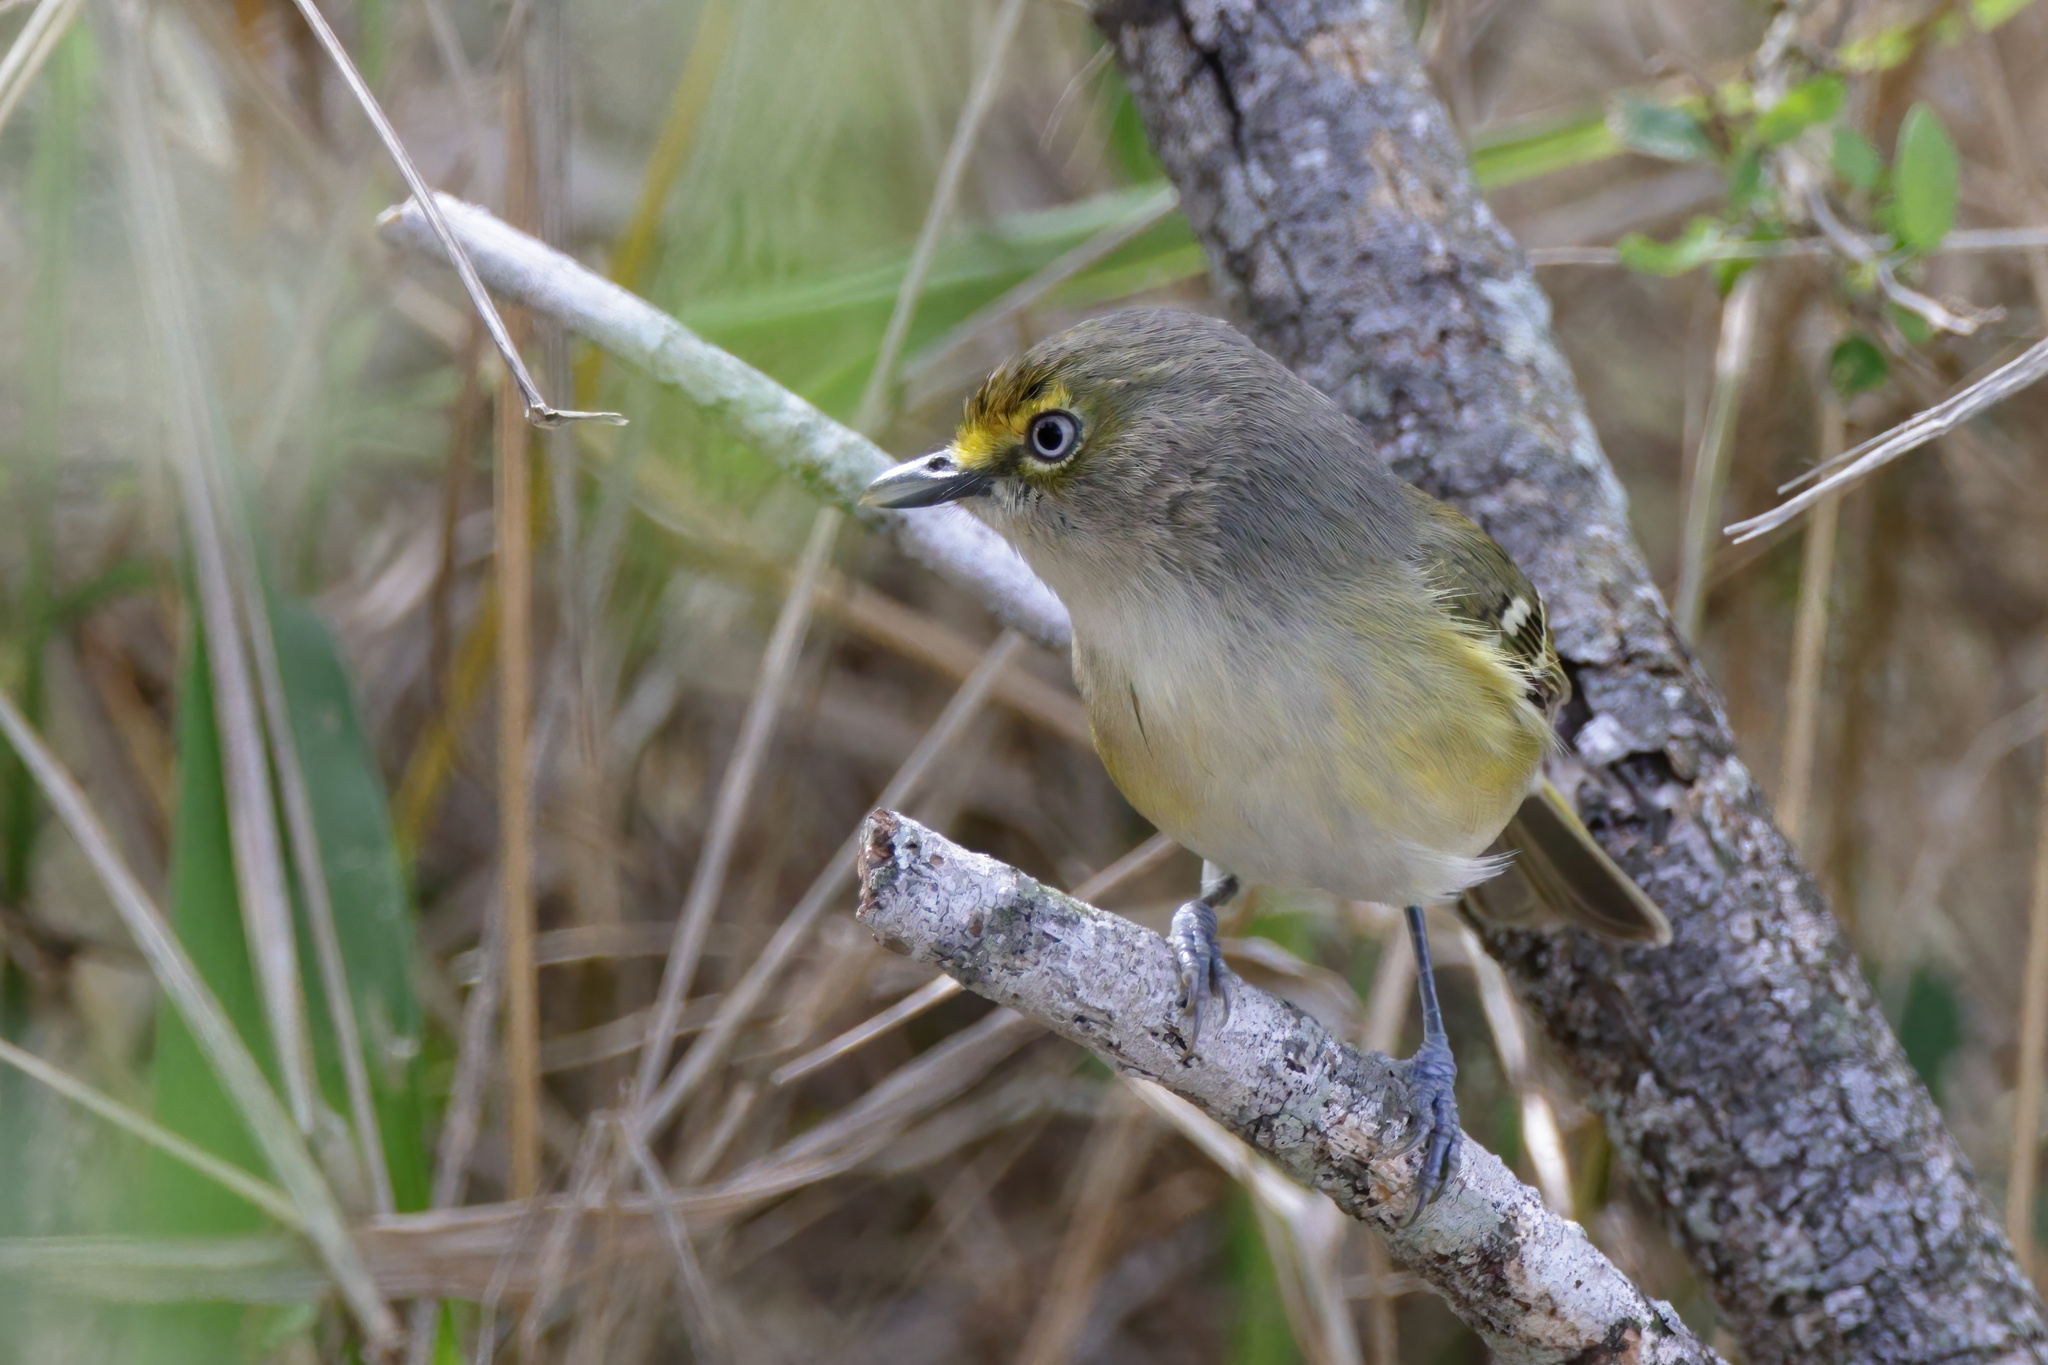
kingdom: Animalia
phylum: Chordata
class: Aves
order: Passeriformes
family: Vireonidae
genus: Vireo
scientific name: Vireo griseus
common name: White-eyed vireo
